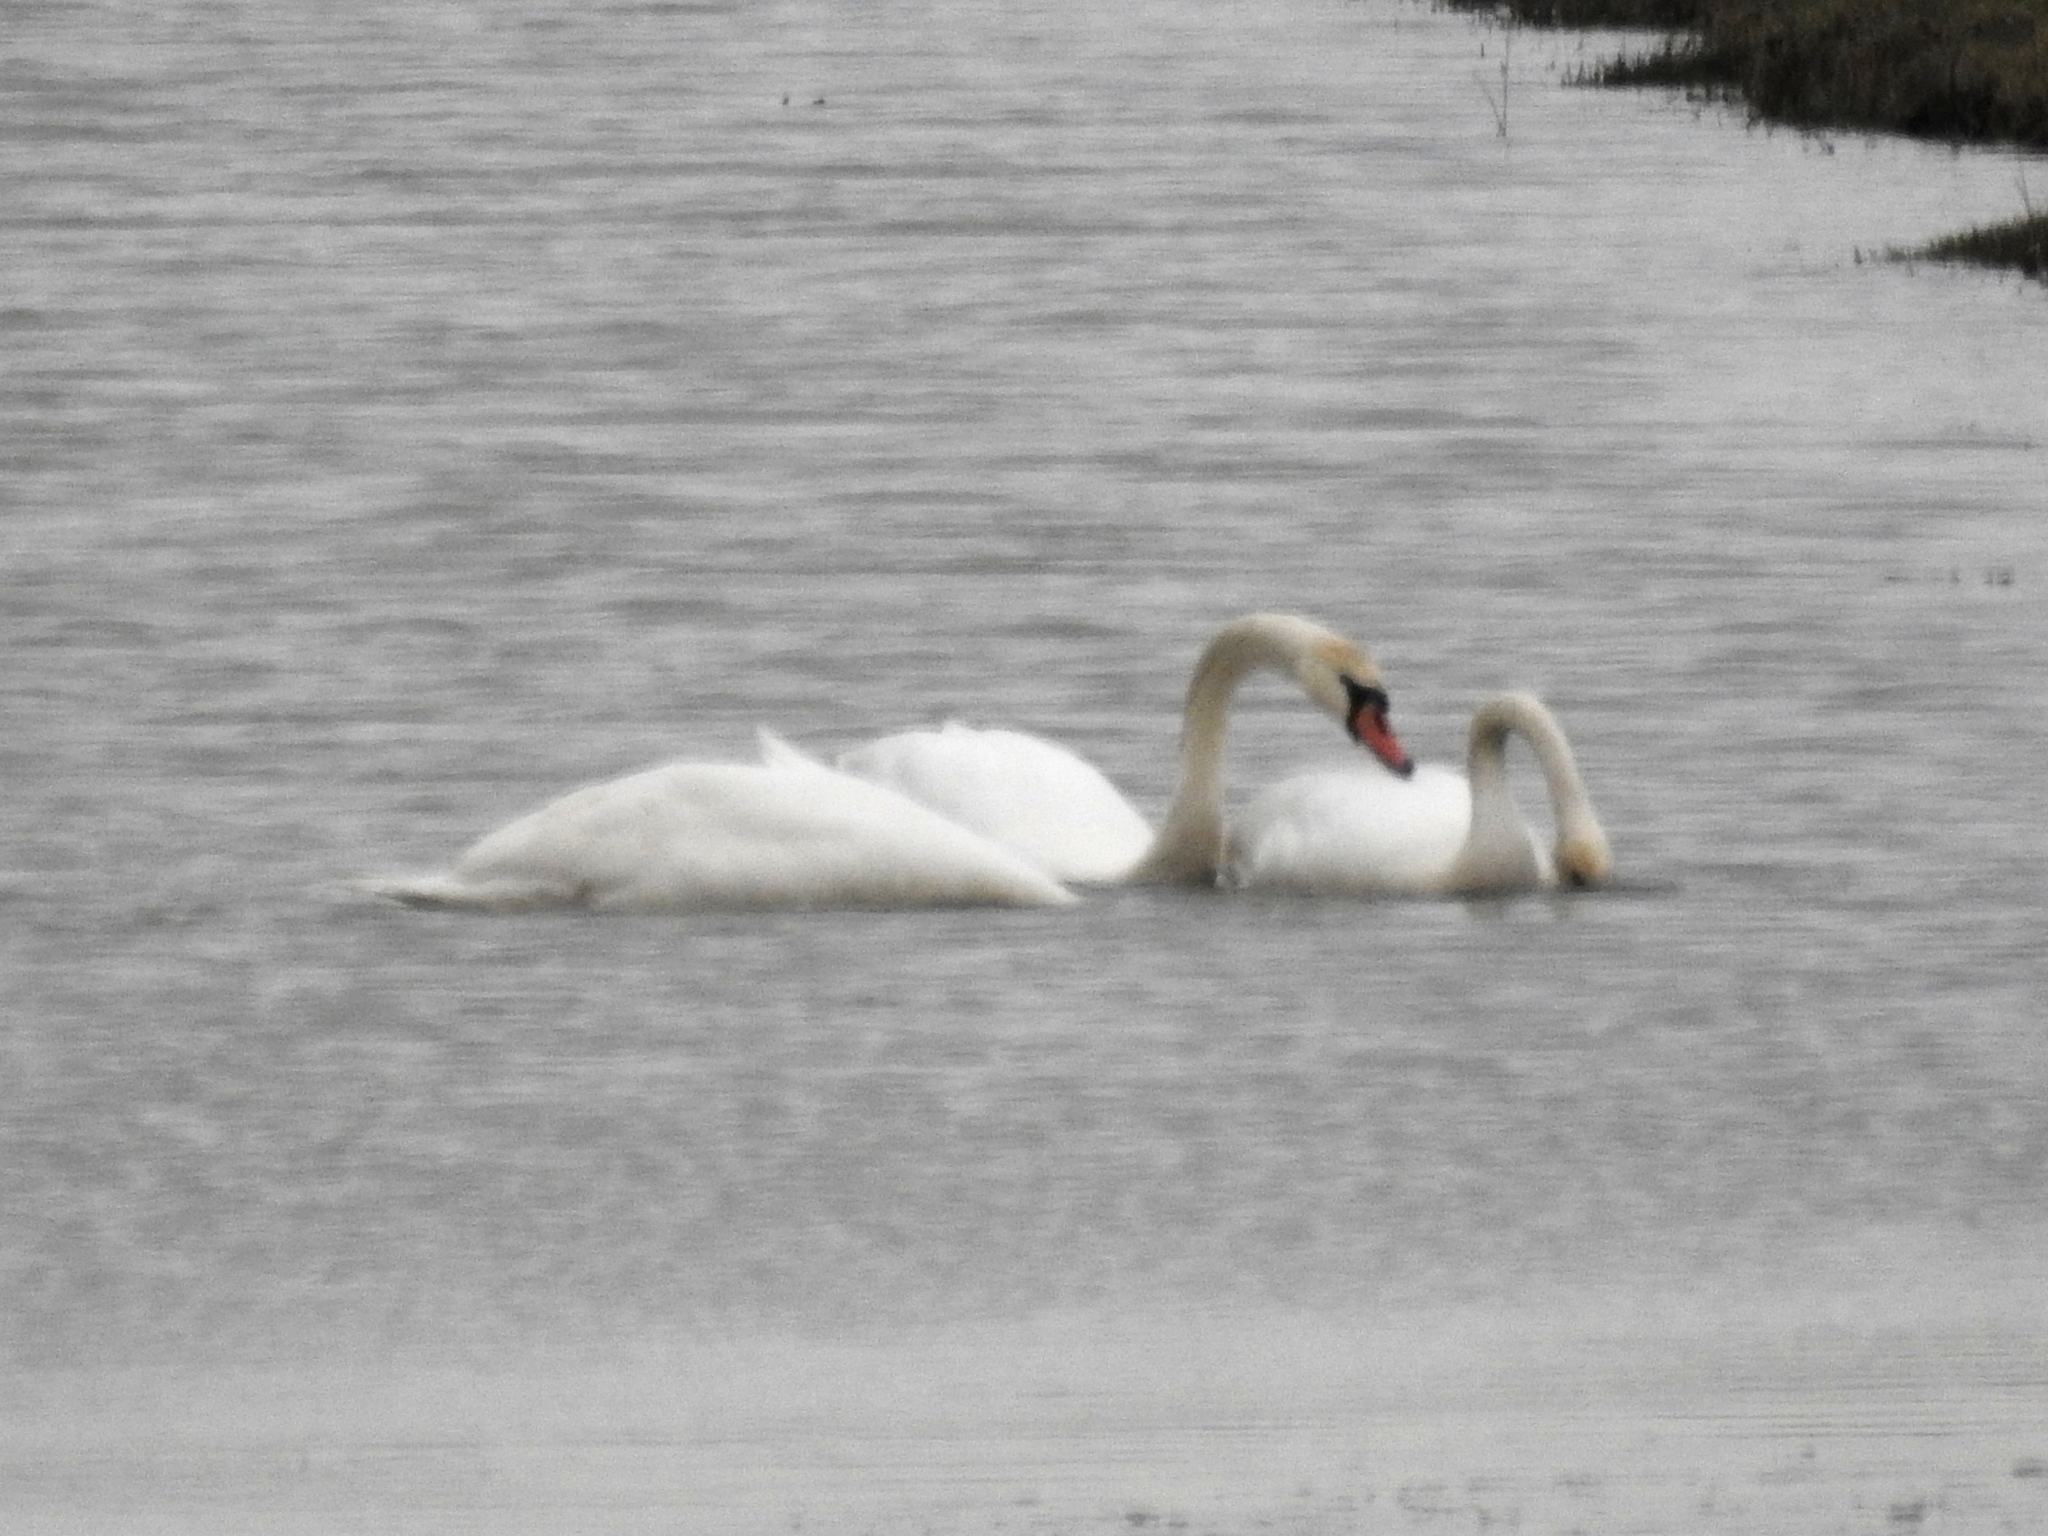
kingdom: Animalia
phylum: Chordata
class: Aves
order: Anseriformes
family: Anatidae
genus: Cygnus
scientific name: Cygnus olor
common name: Mute swan
